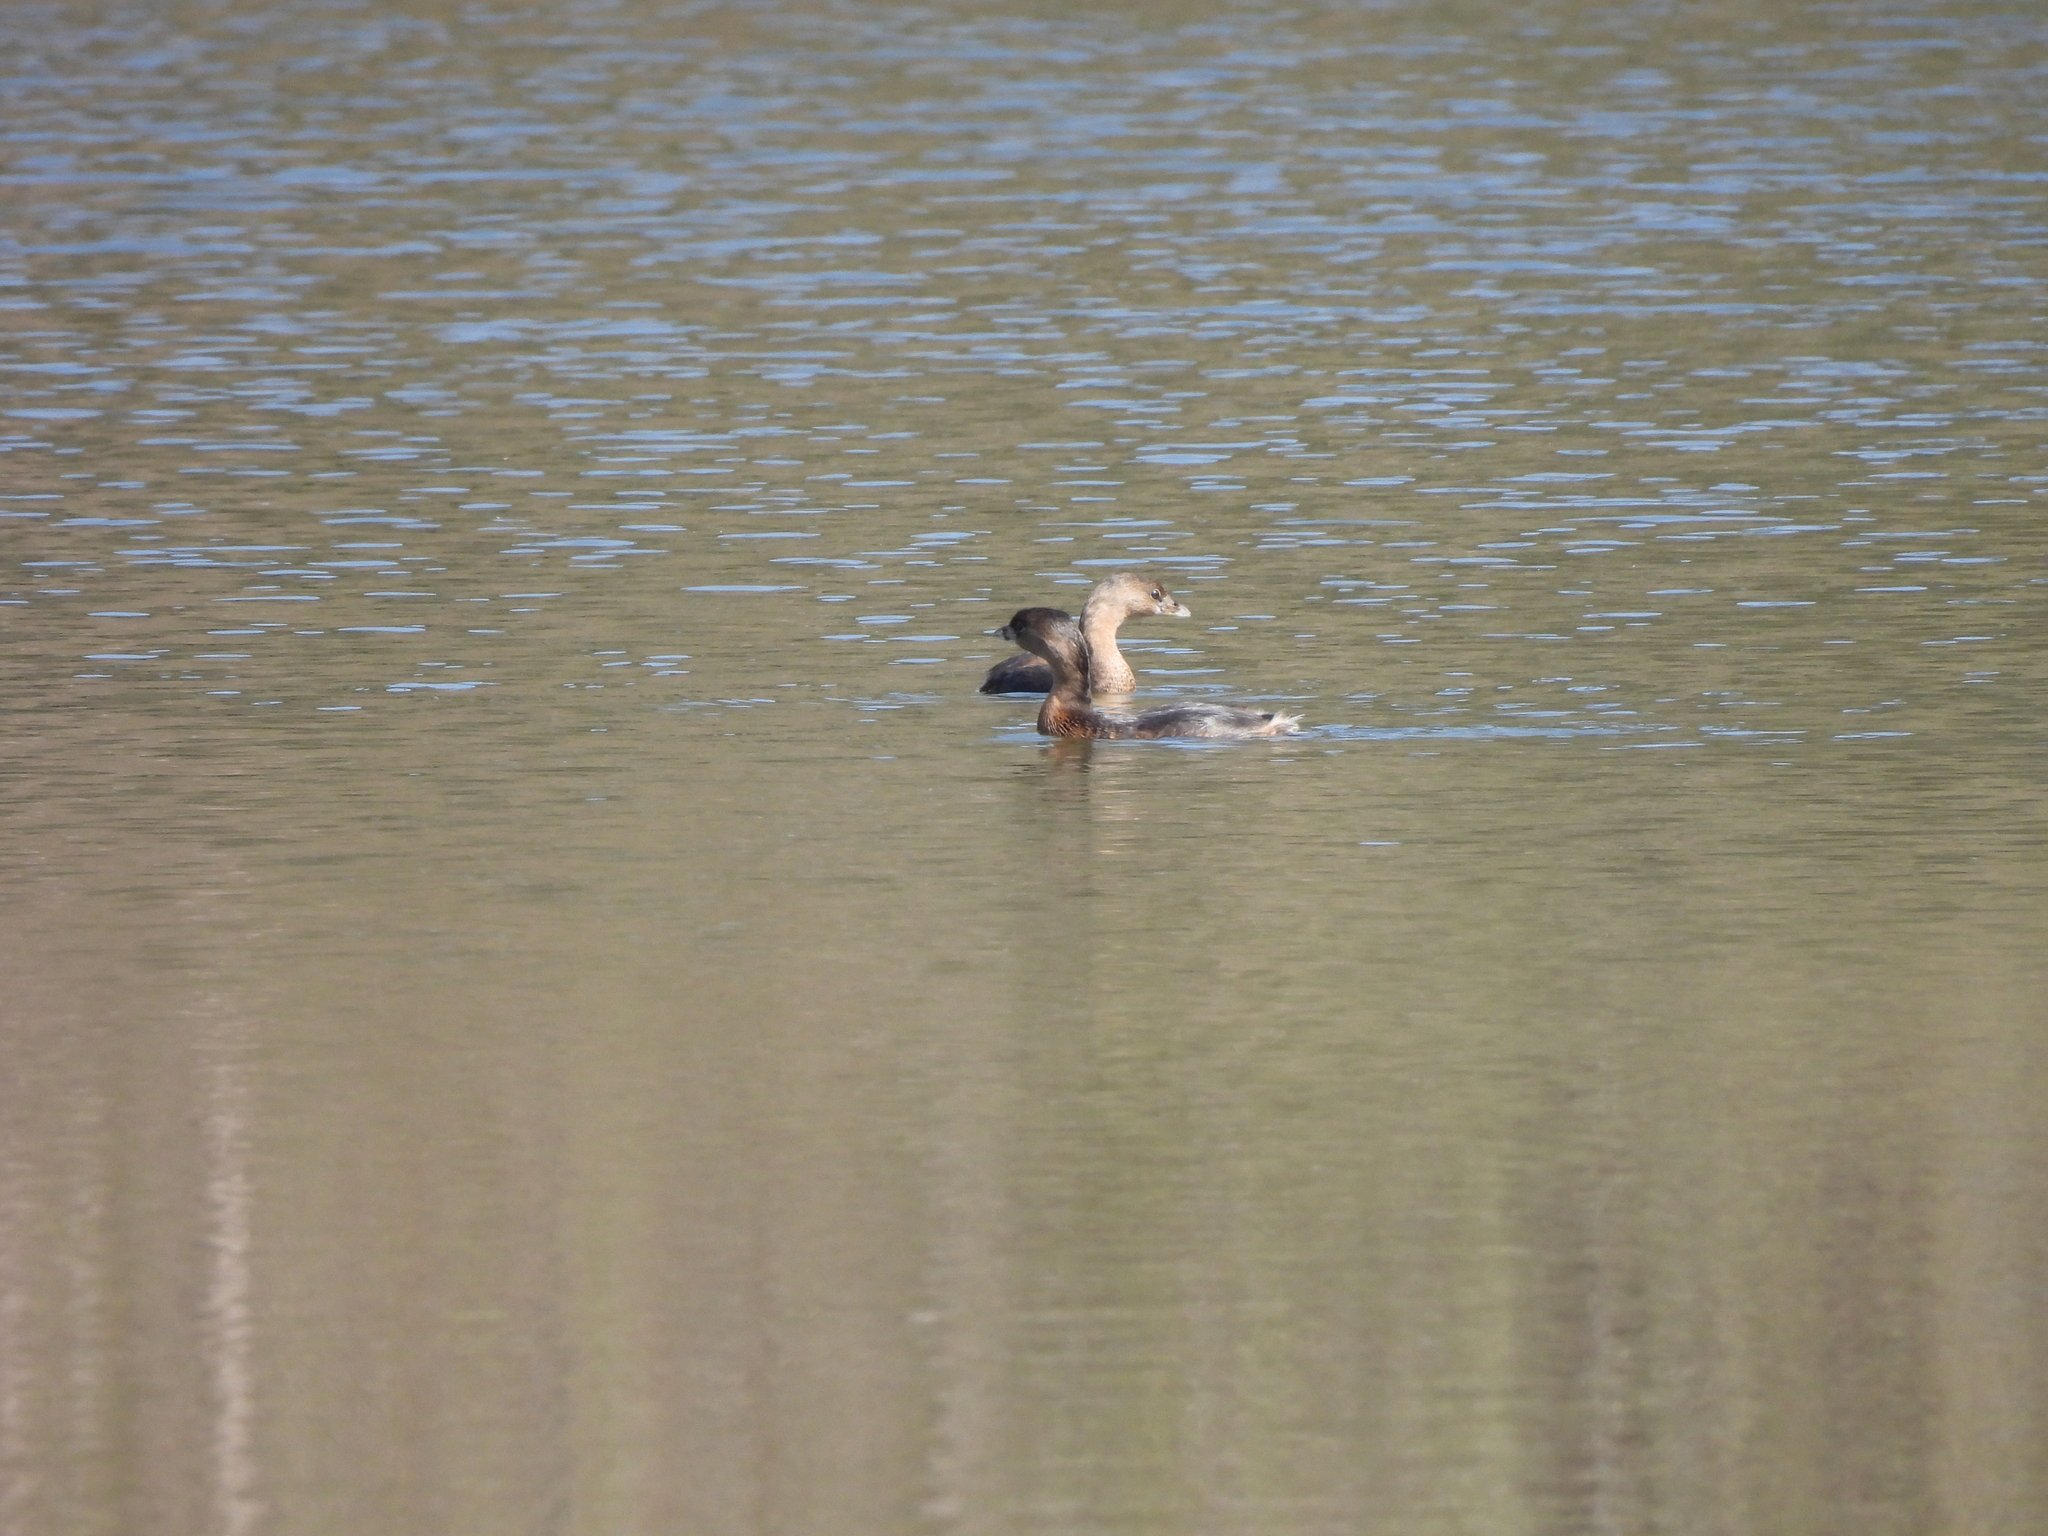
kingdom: Animalia
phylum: Chordata
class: Aves
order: Podicipediformes
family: Podicipedidae
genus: Podilymbus
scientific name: Podilymbus podiceps
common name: Pied-billed grebe
